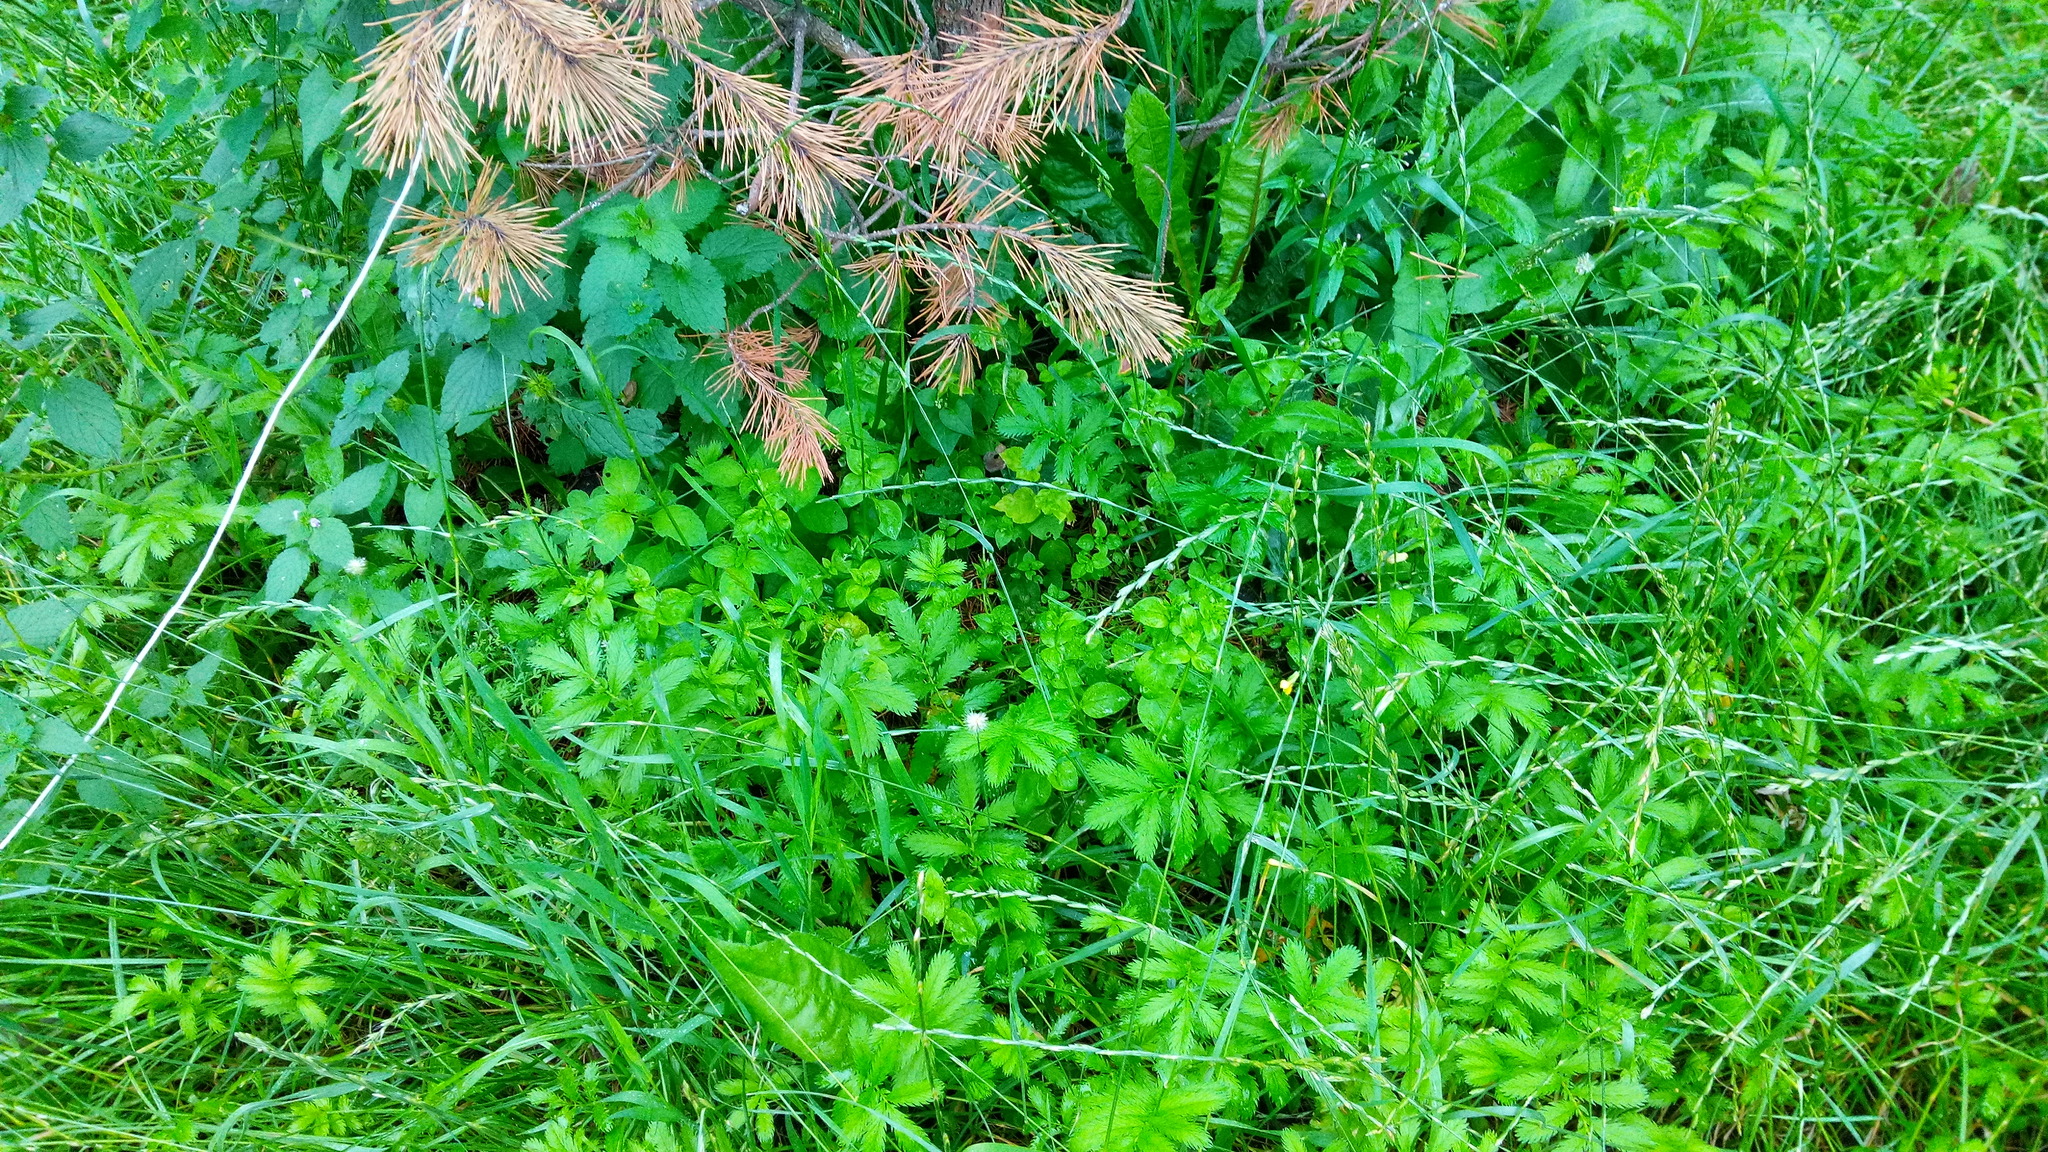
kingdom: Plantae
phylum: Tracheophyta
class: Magnoliopsida
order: Rosales
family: Rosaceae
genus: Argentina
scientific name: Argentina anserina
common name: Common silverweed
